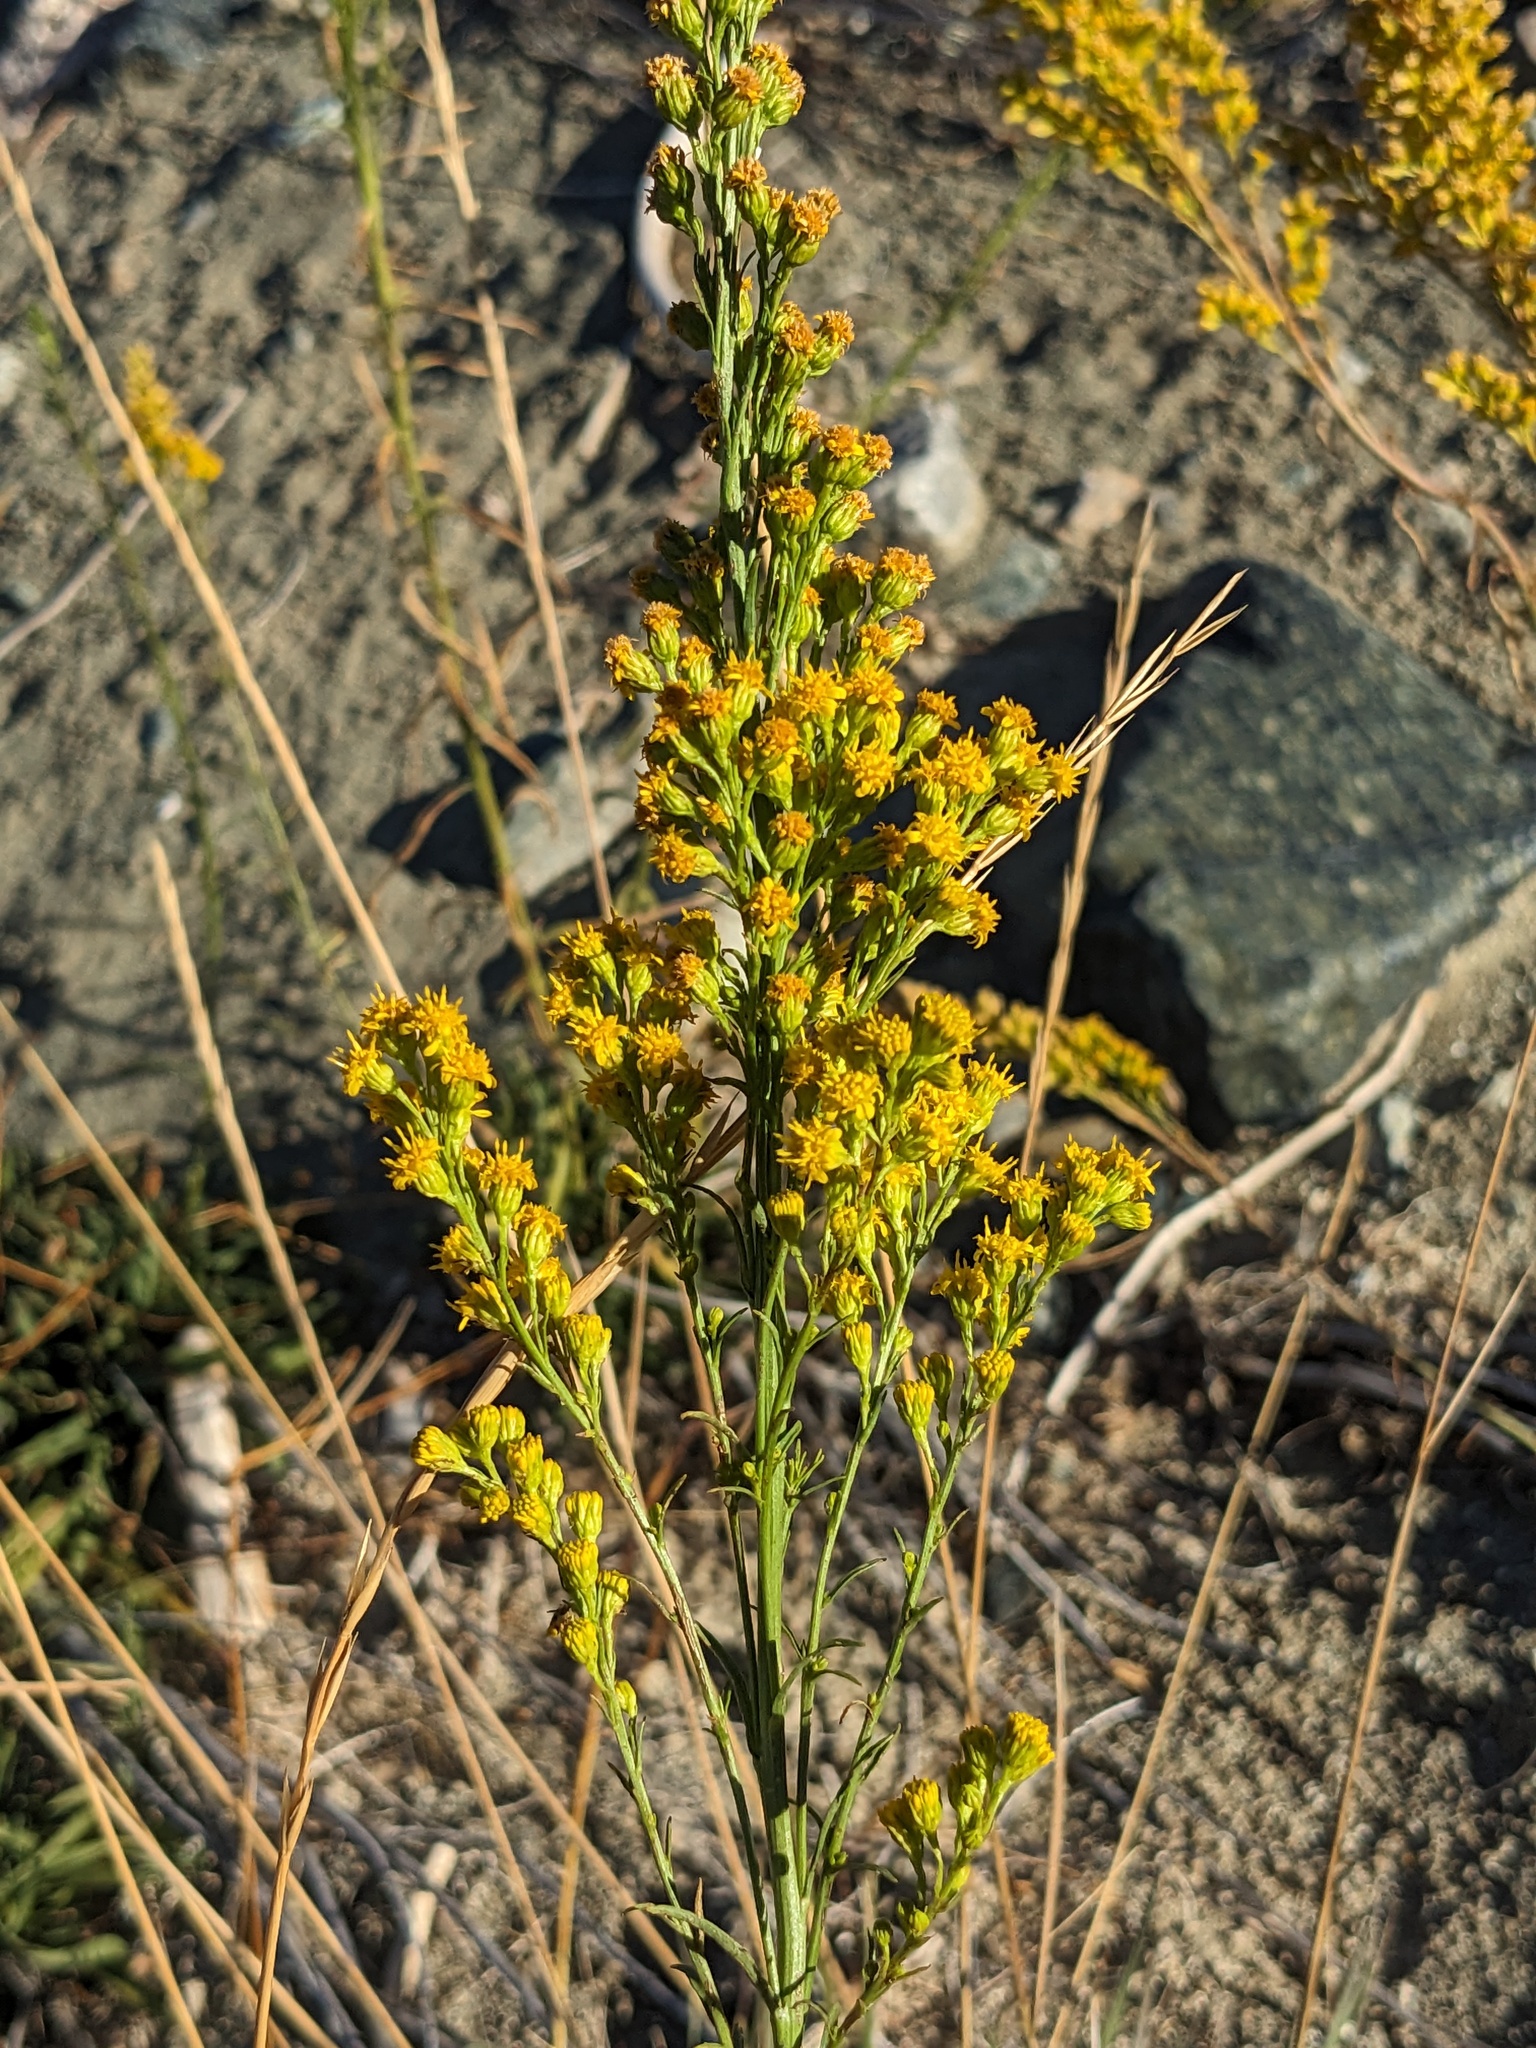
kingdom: Plantae
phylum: Tracheophyta
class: Magnoliopsida
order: Asterales
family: Asteraceae
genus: Solidago
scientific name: Solidago guiradonis
